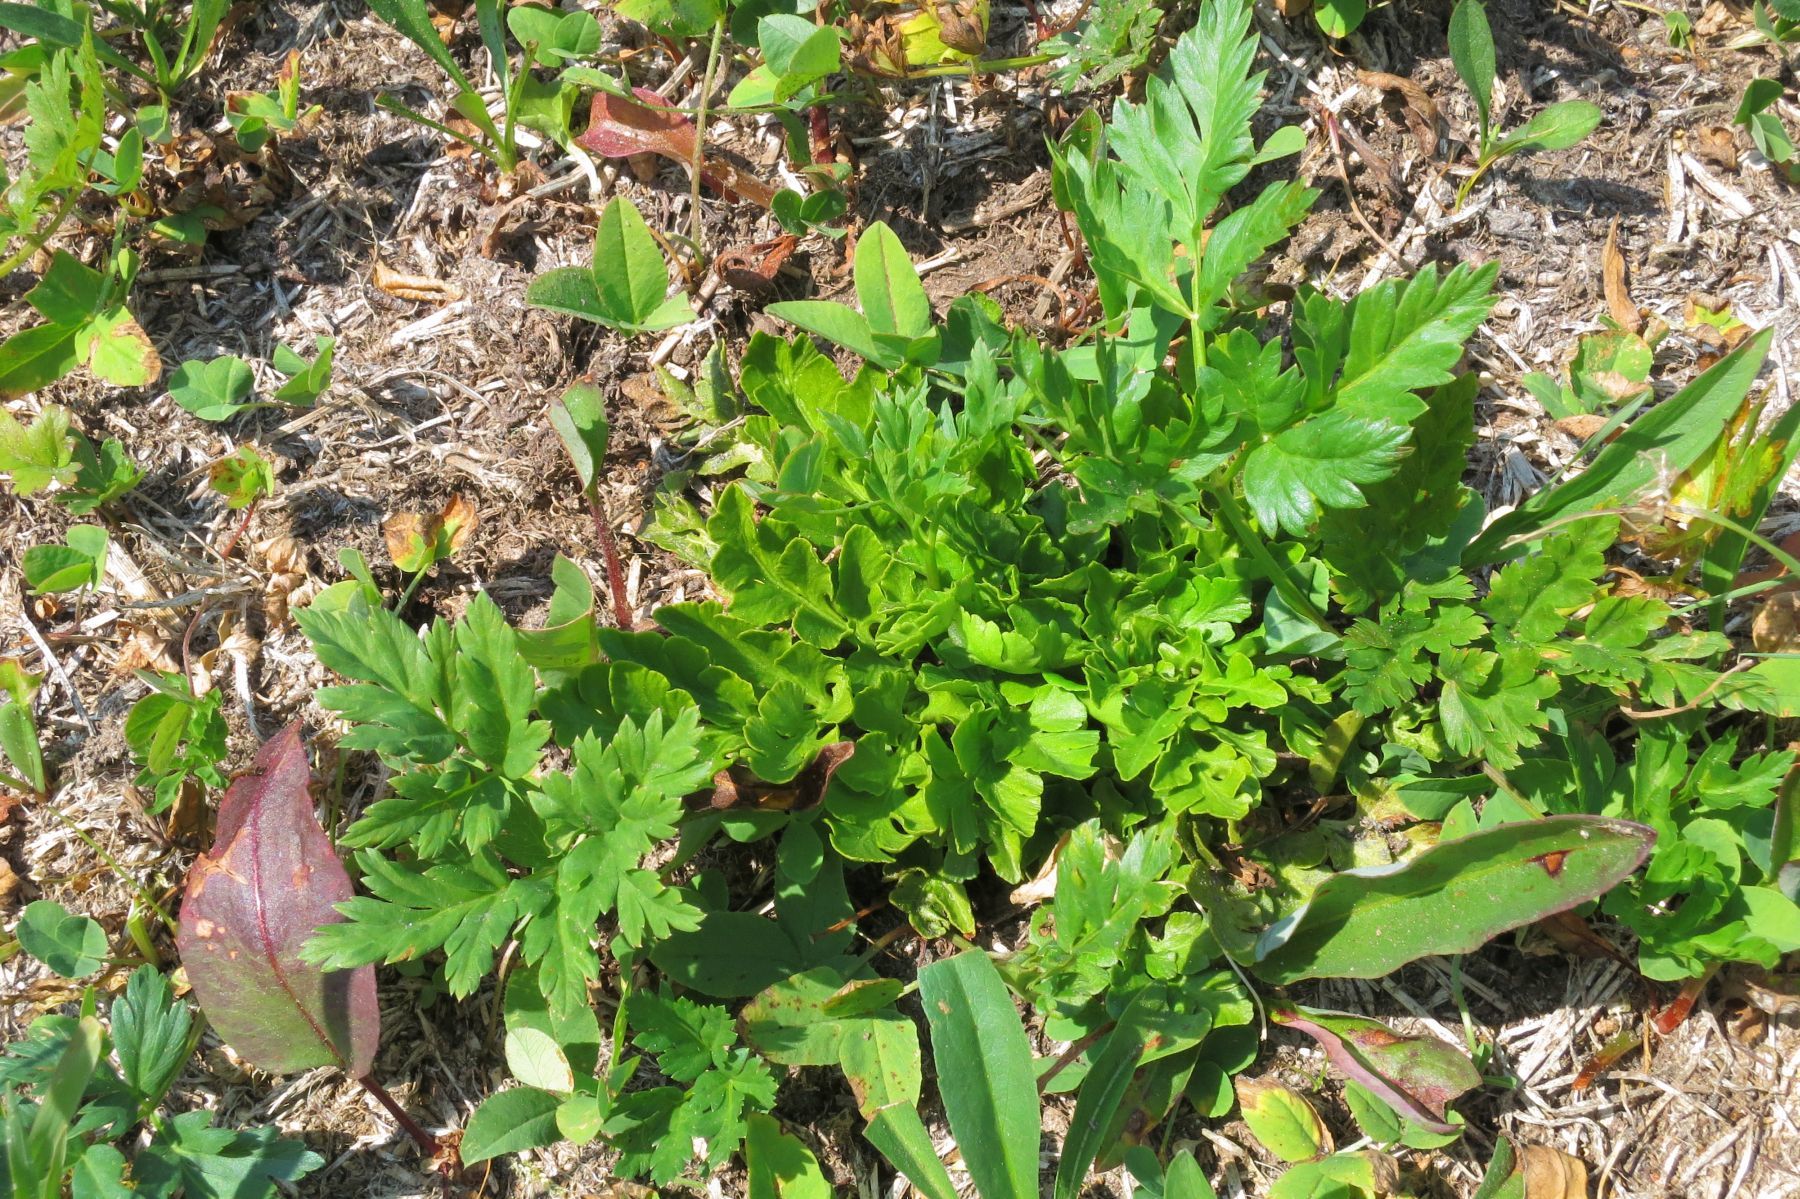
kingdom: Plantae
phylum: Tracheophyta
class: Polypodiopsida
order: Ophioglossales
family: Ophioglossaceae
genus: Sceptridium
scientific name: Sceptridium multifidum
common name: Leathery grape fern
